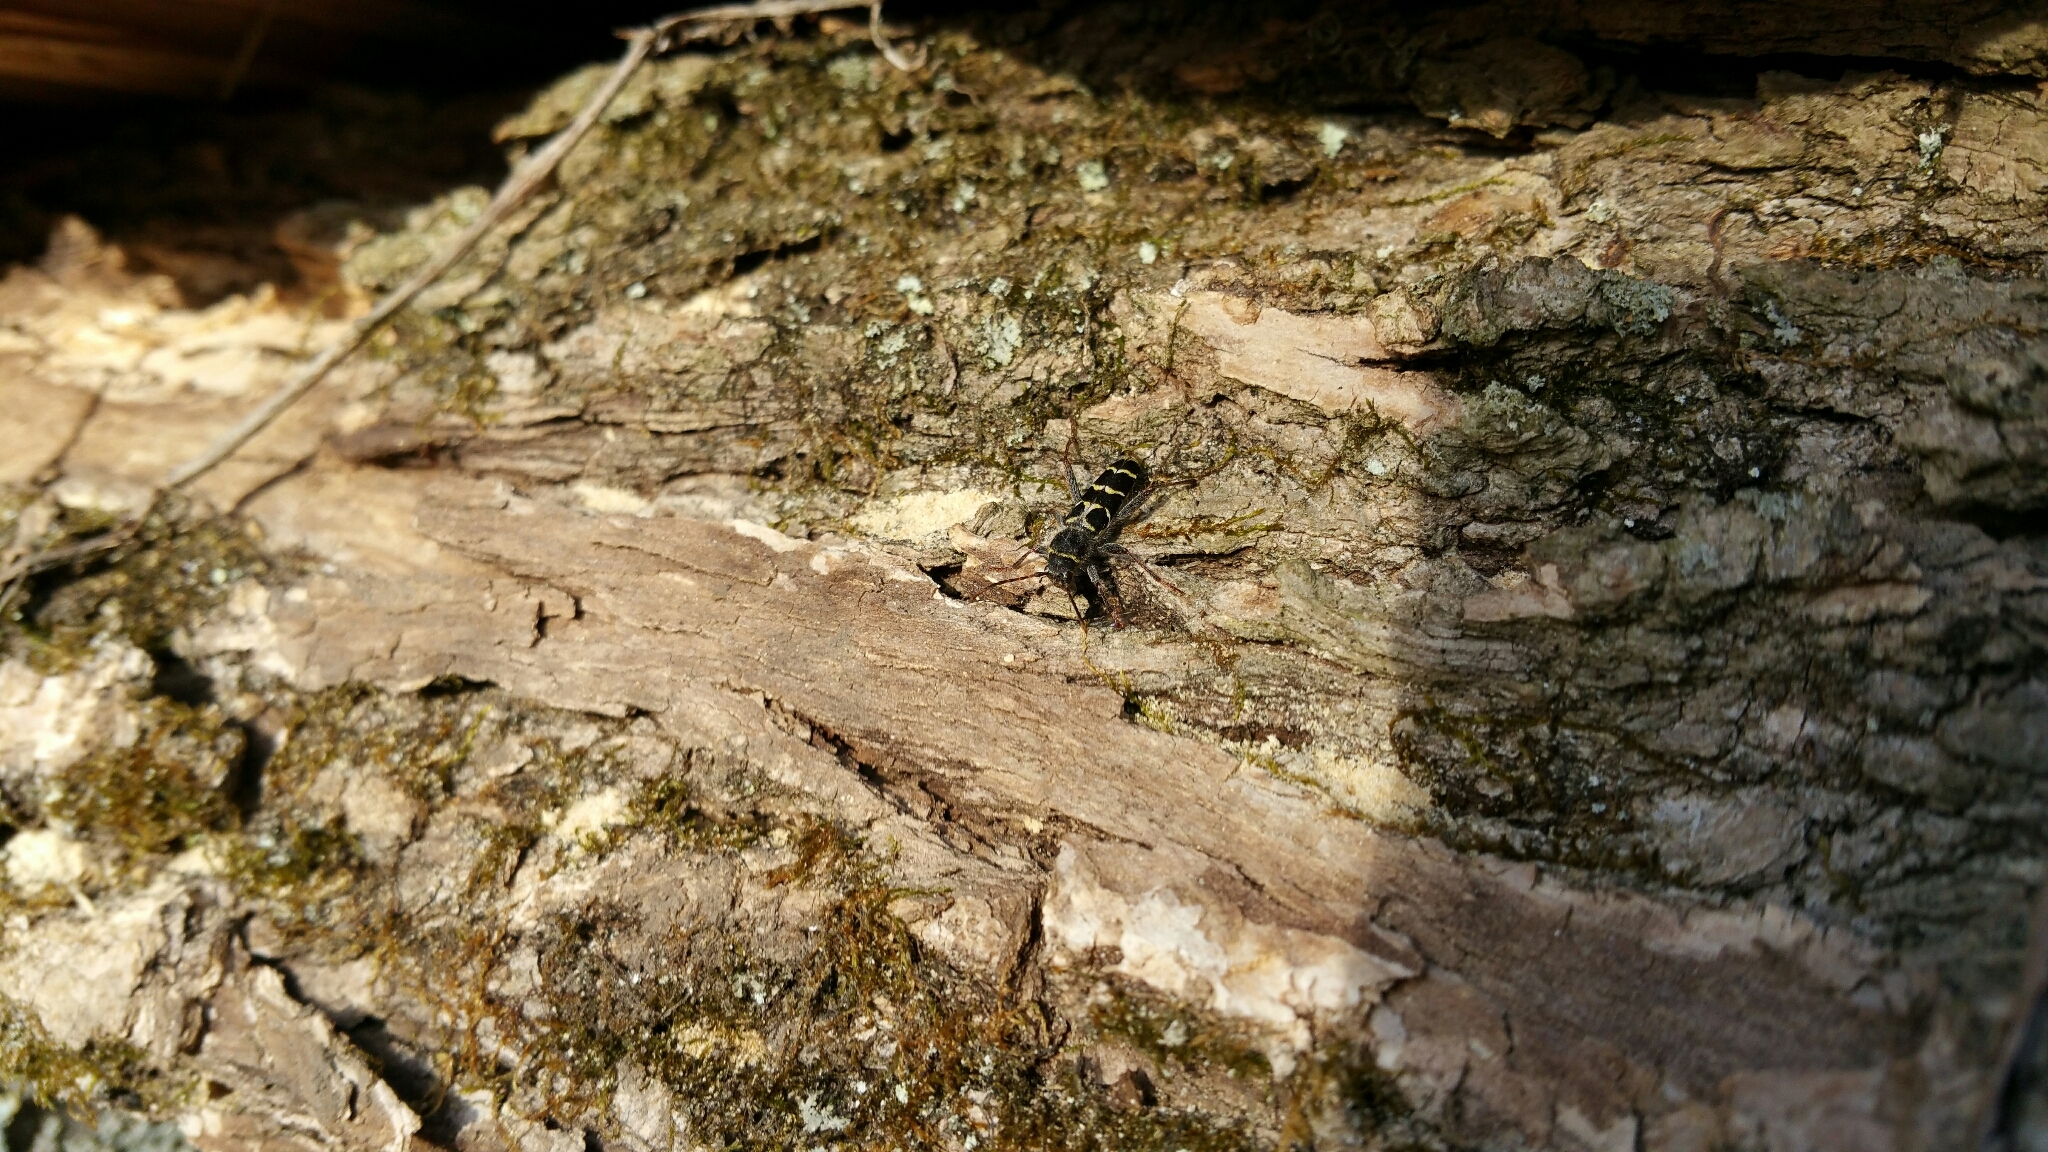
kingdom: Animalia
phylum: Arthropoda
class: Insecta
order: Coleoptera
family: Cerambycidae
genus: Neoclytus
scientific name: Neoclytus caprea
